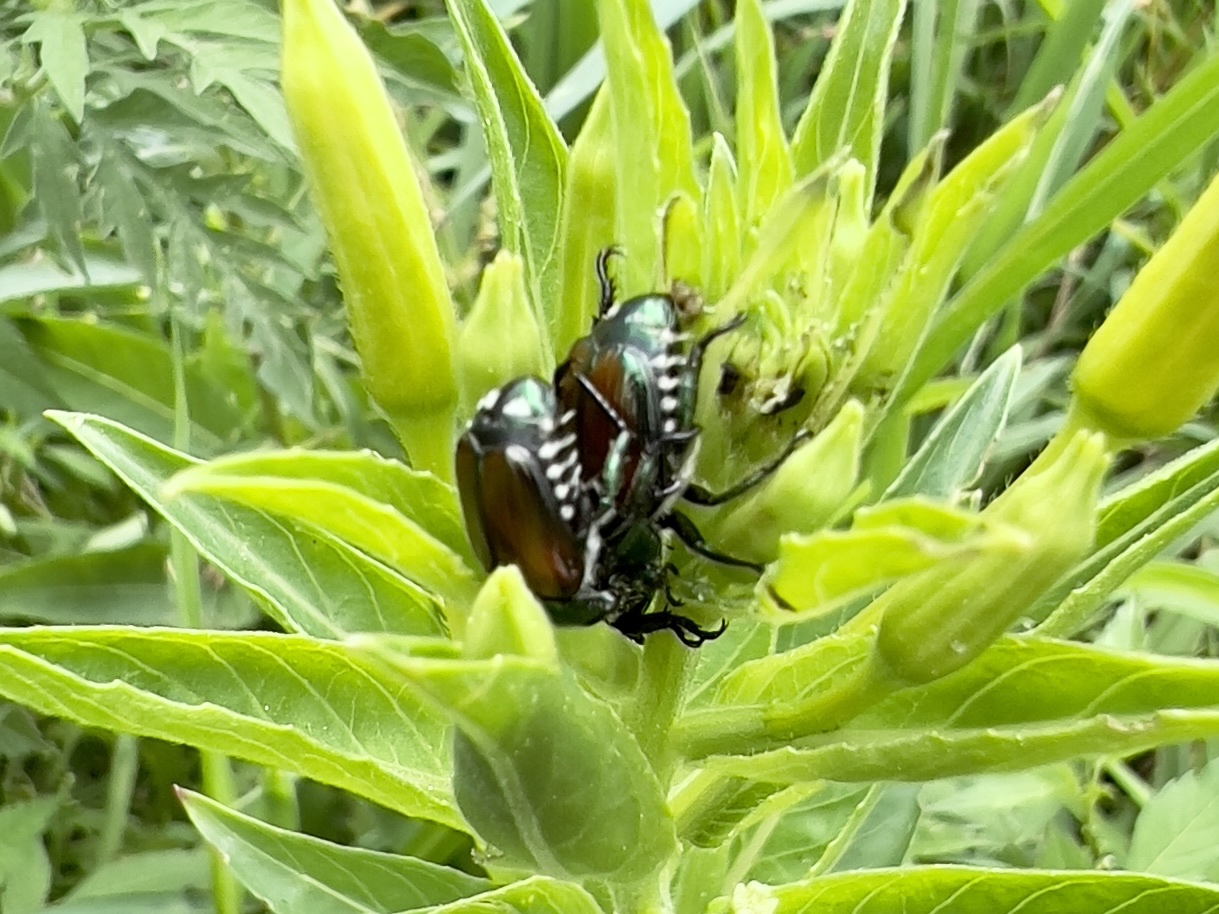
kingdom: Animalia
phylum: Arthropoda
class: Insecta
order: Coleoptera
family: Scarabaeidae
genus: Popillia
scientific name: Popillia japonica
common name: Japanese beetle
